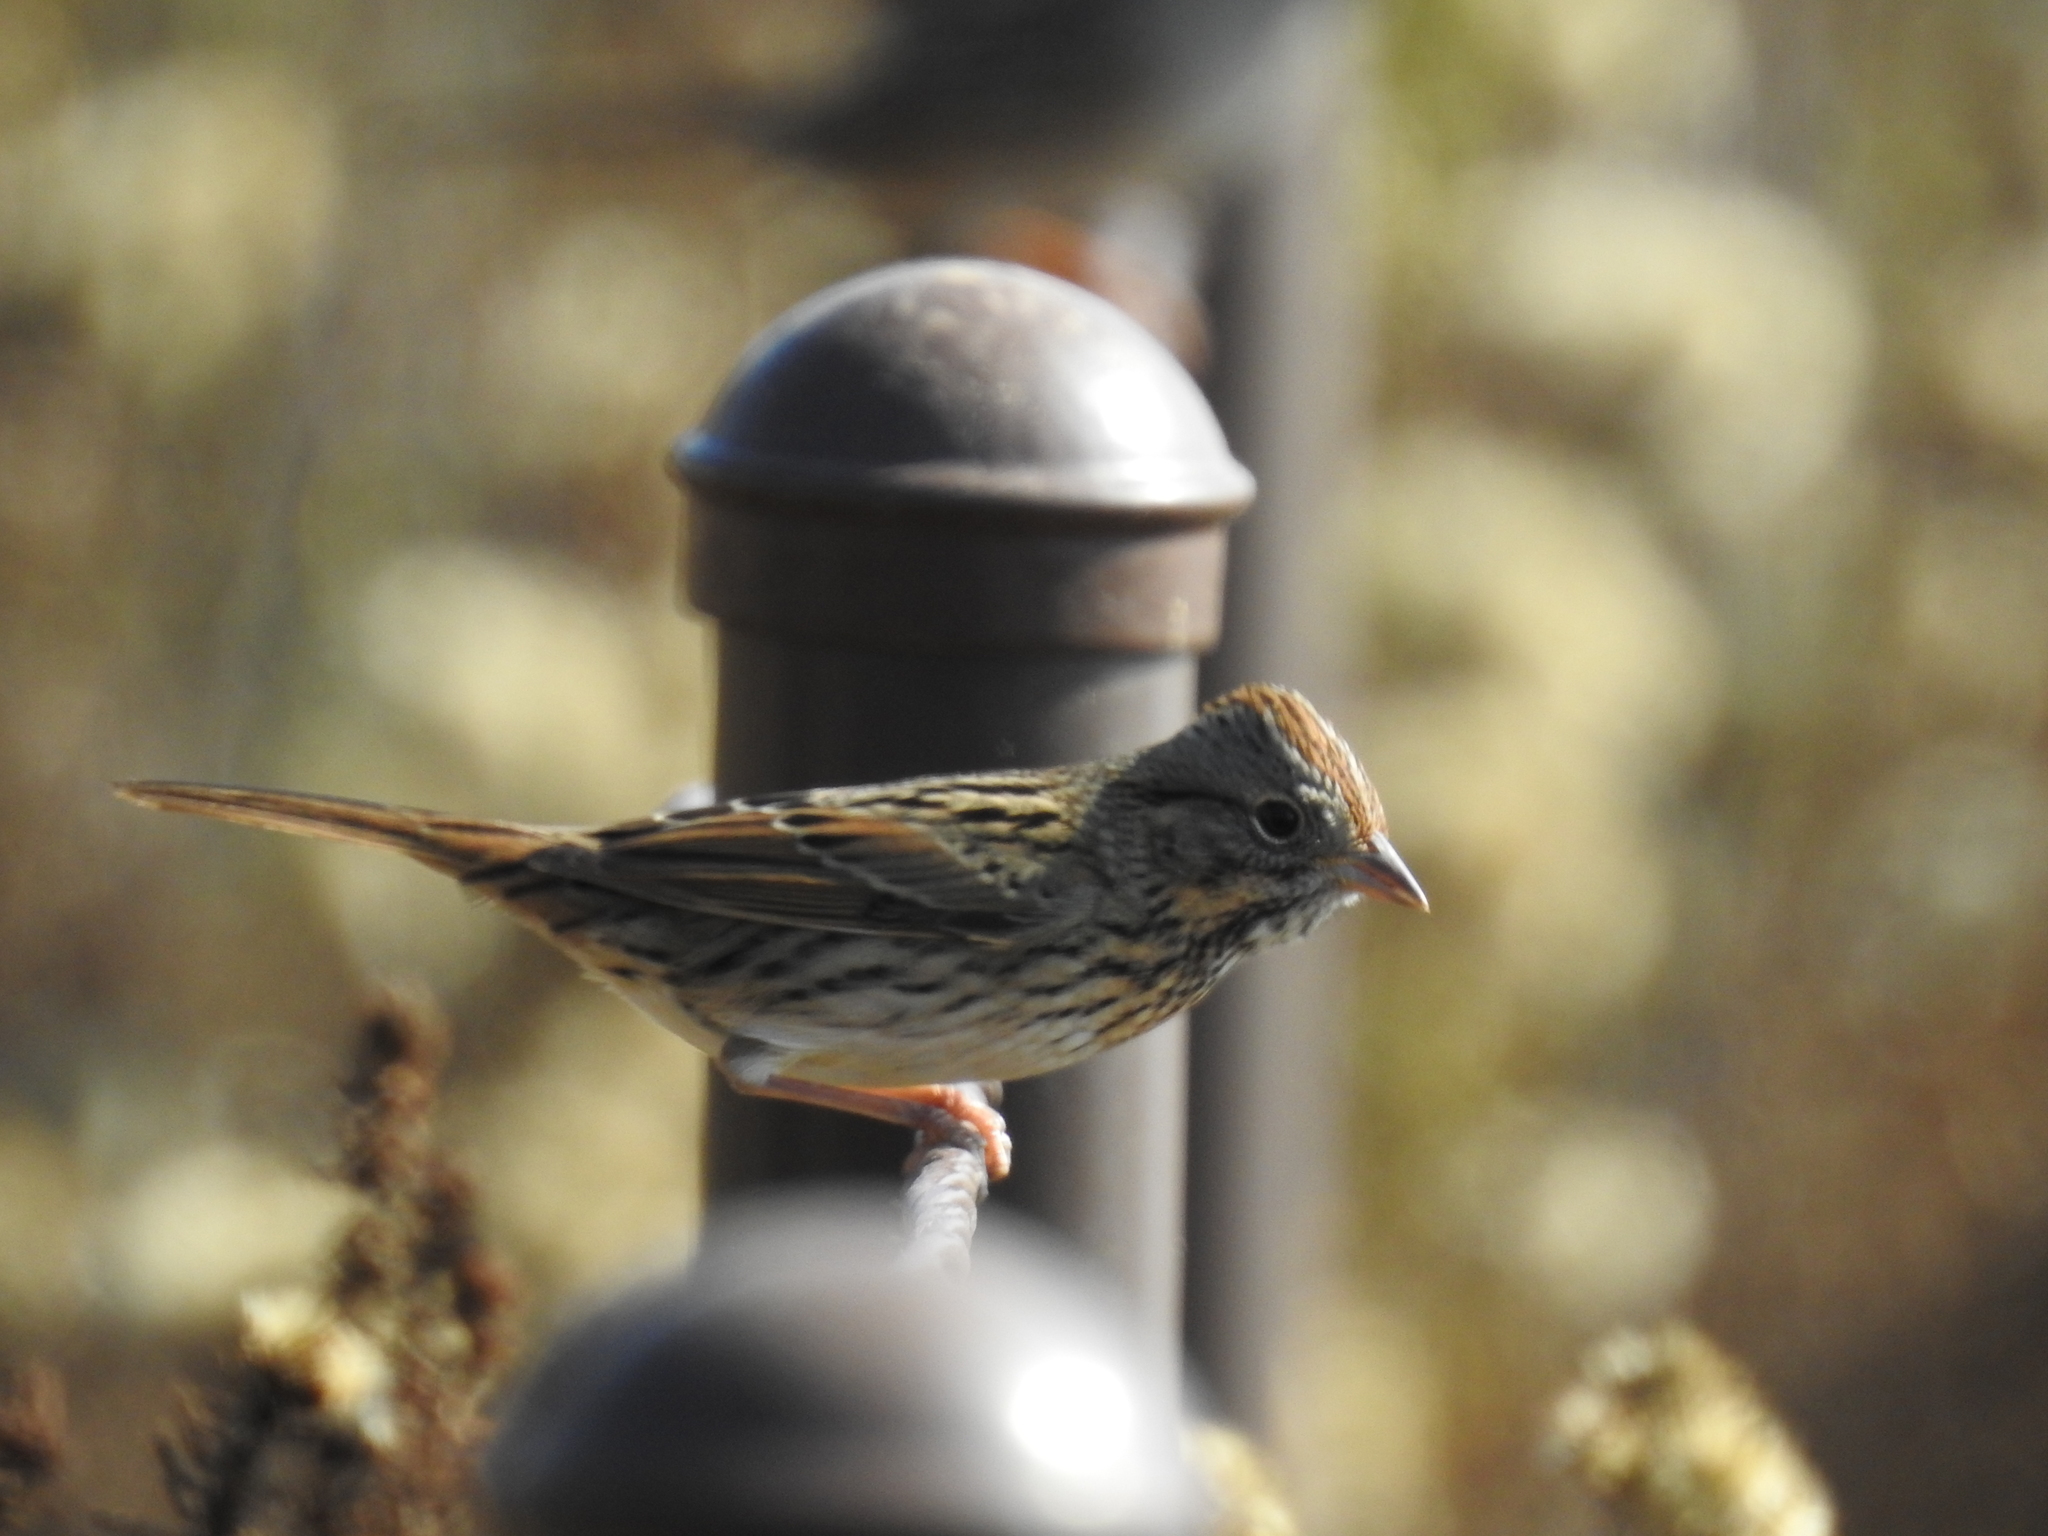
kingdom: Animalia
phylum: Chordata
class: Aves
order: Passeriformes
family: Passerellidae
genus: Melospiza
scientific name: Melospiza lincolnii
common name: Lincoln's sparrow
